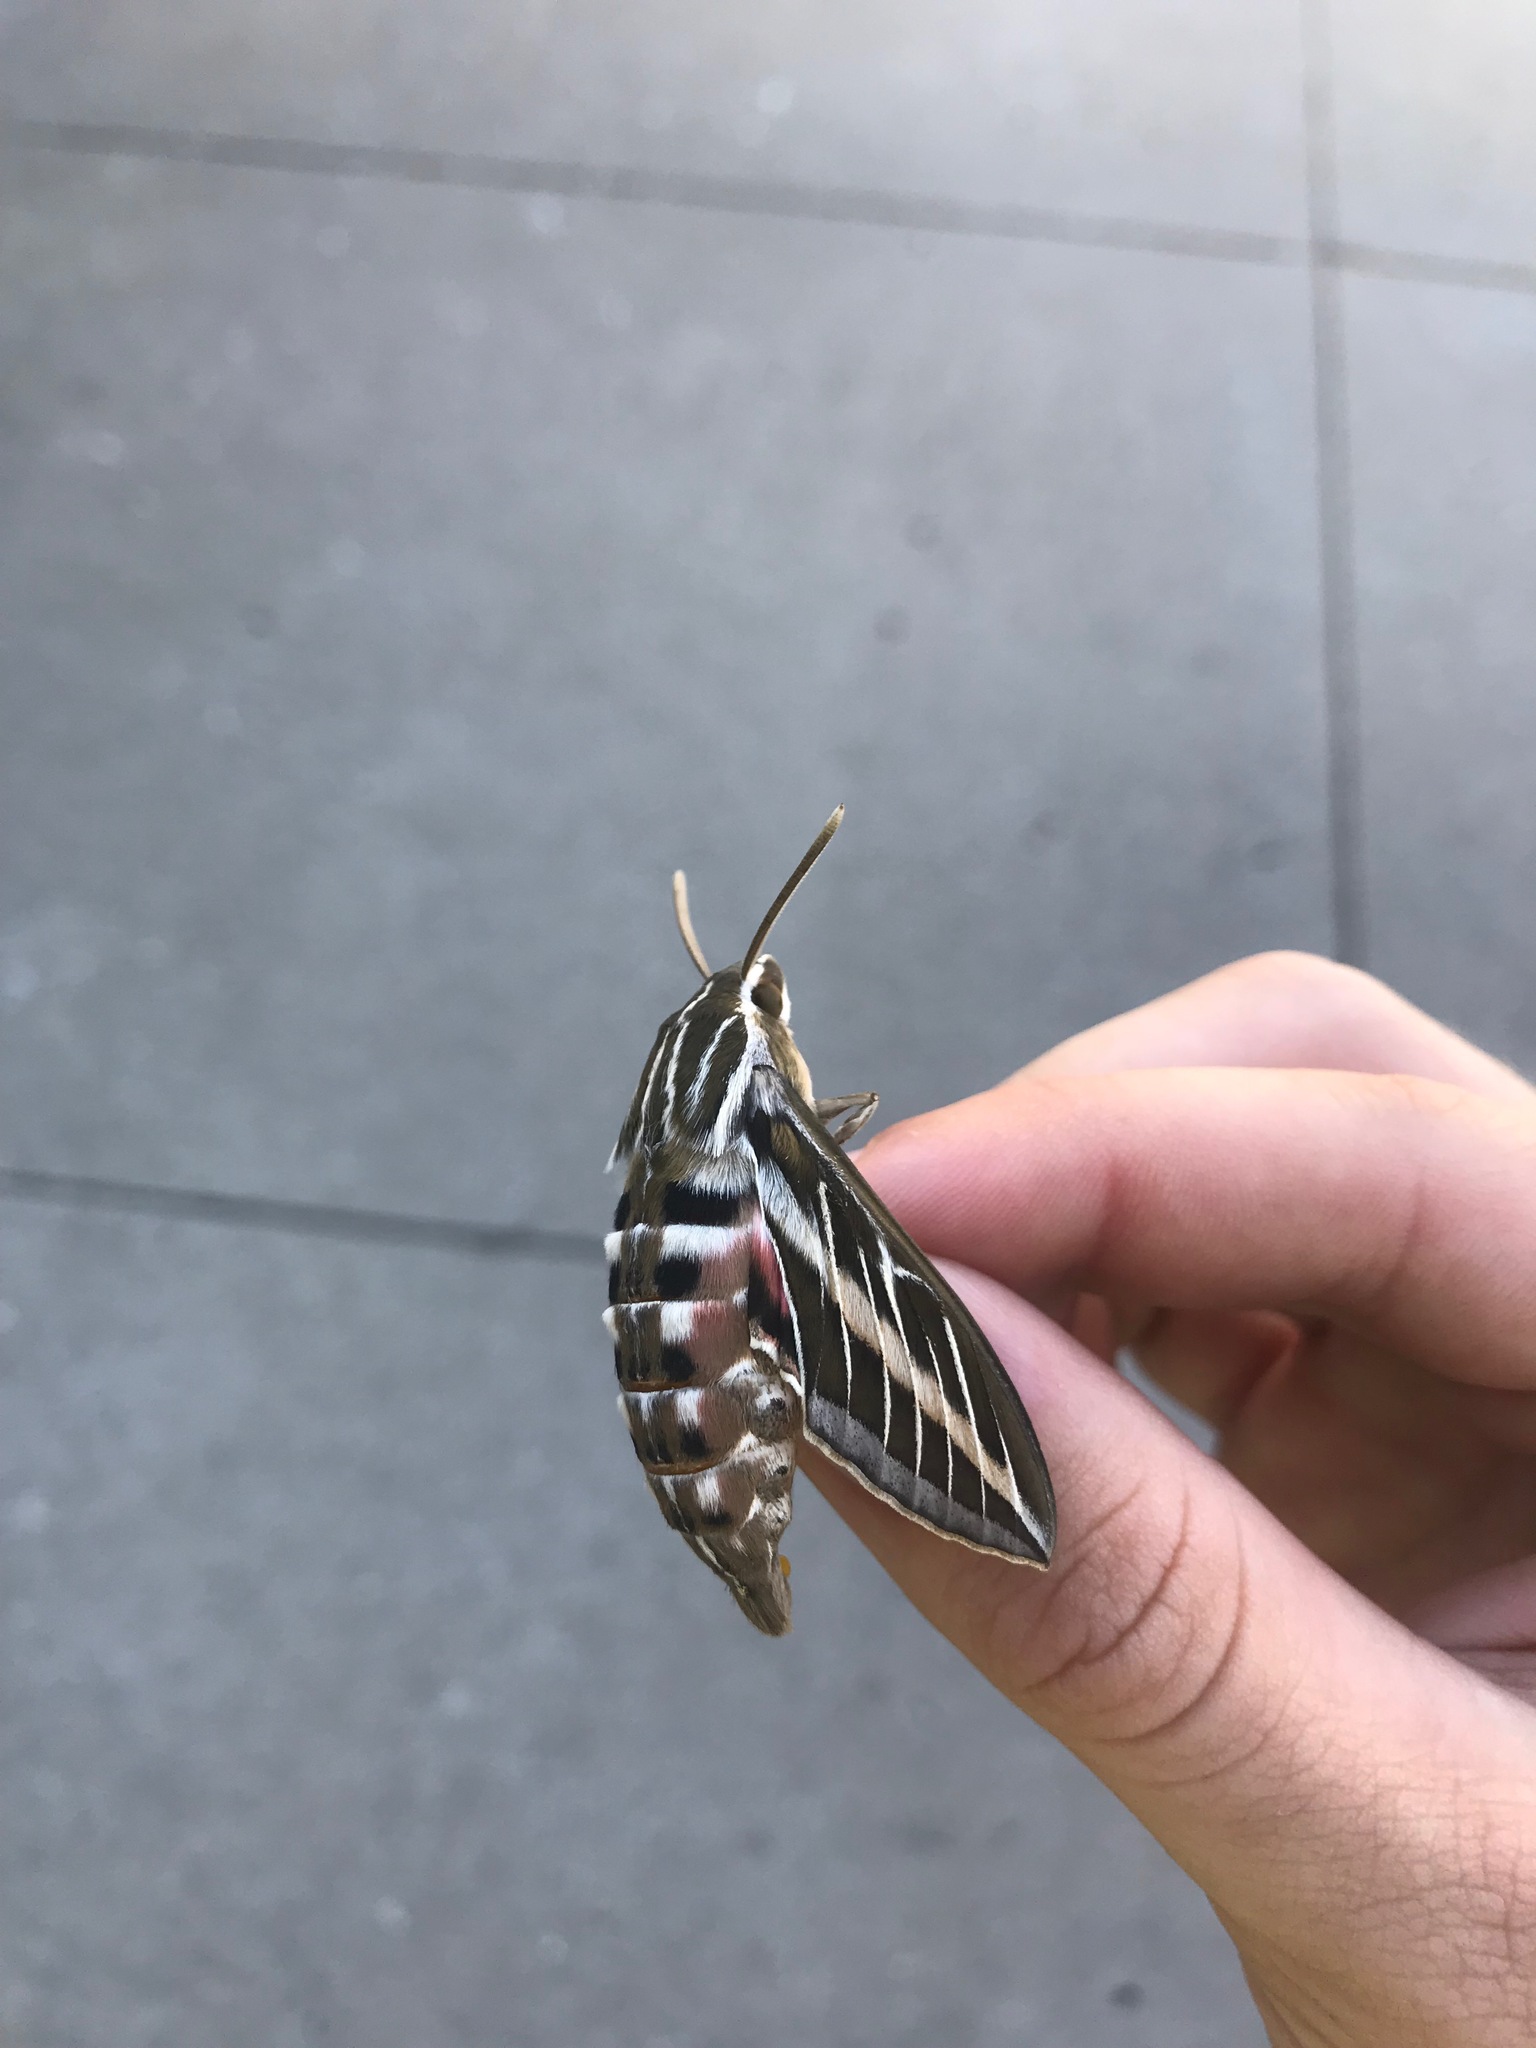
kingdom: Animalia
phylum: Arthropoda
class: Insecta
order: Lepidoptera
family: Sphingidae
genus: Hyles
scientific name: Hyles lineata
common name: White-lined sphinx
